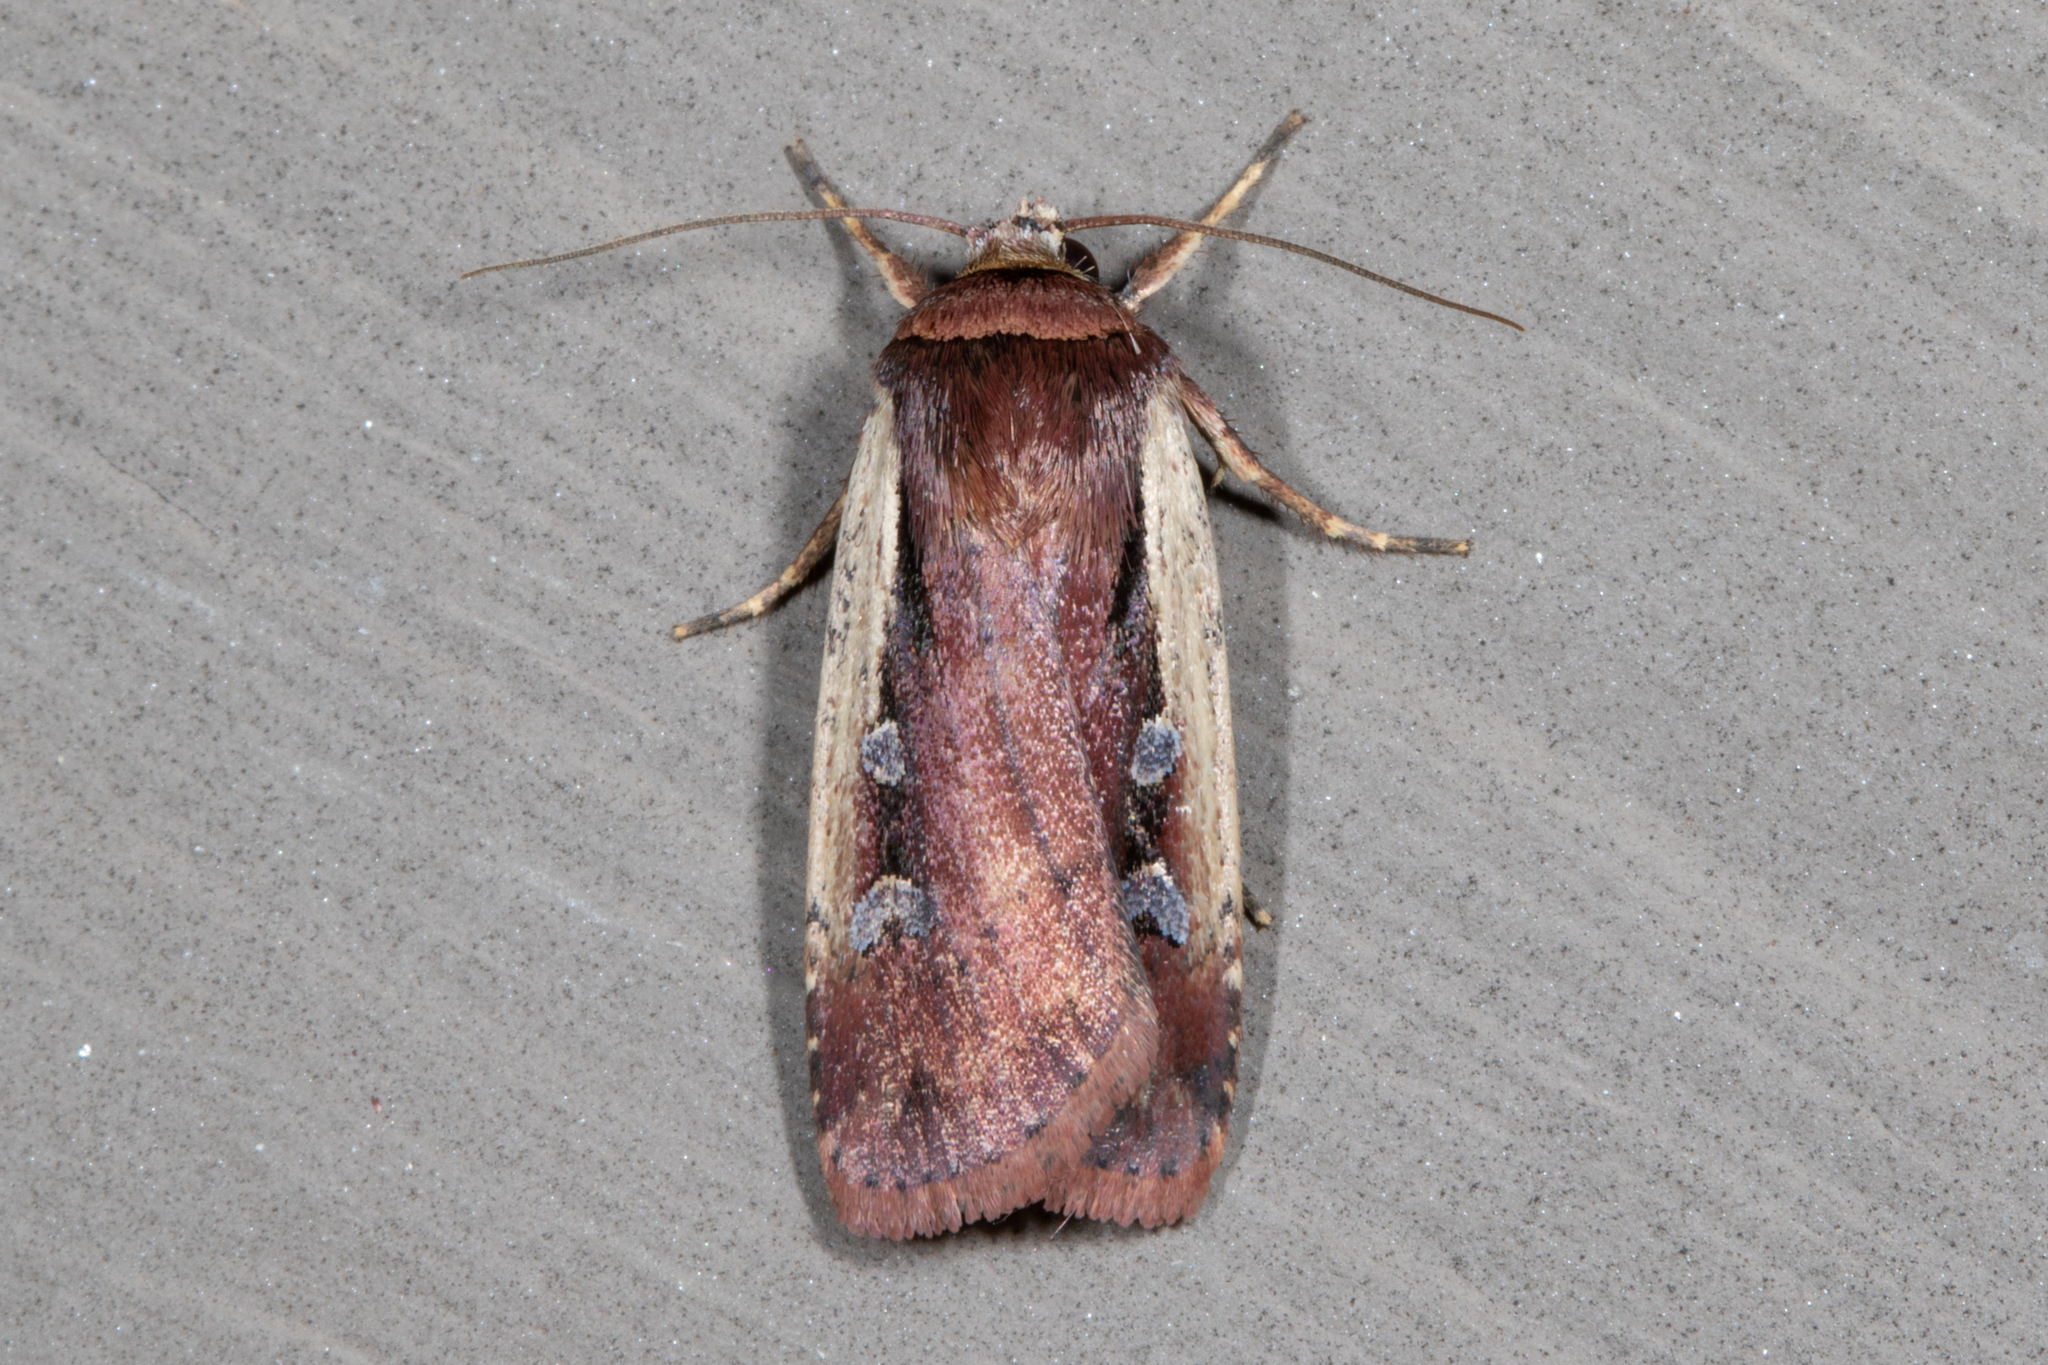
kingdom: Animalia
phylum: Arthropoda
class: Insecta
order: Lepidoptera
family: Noctuidae
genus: Ochropleura
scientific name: Ochropleura implecta
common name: Flame-shouldered dart
